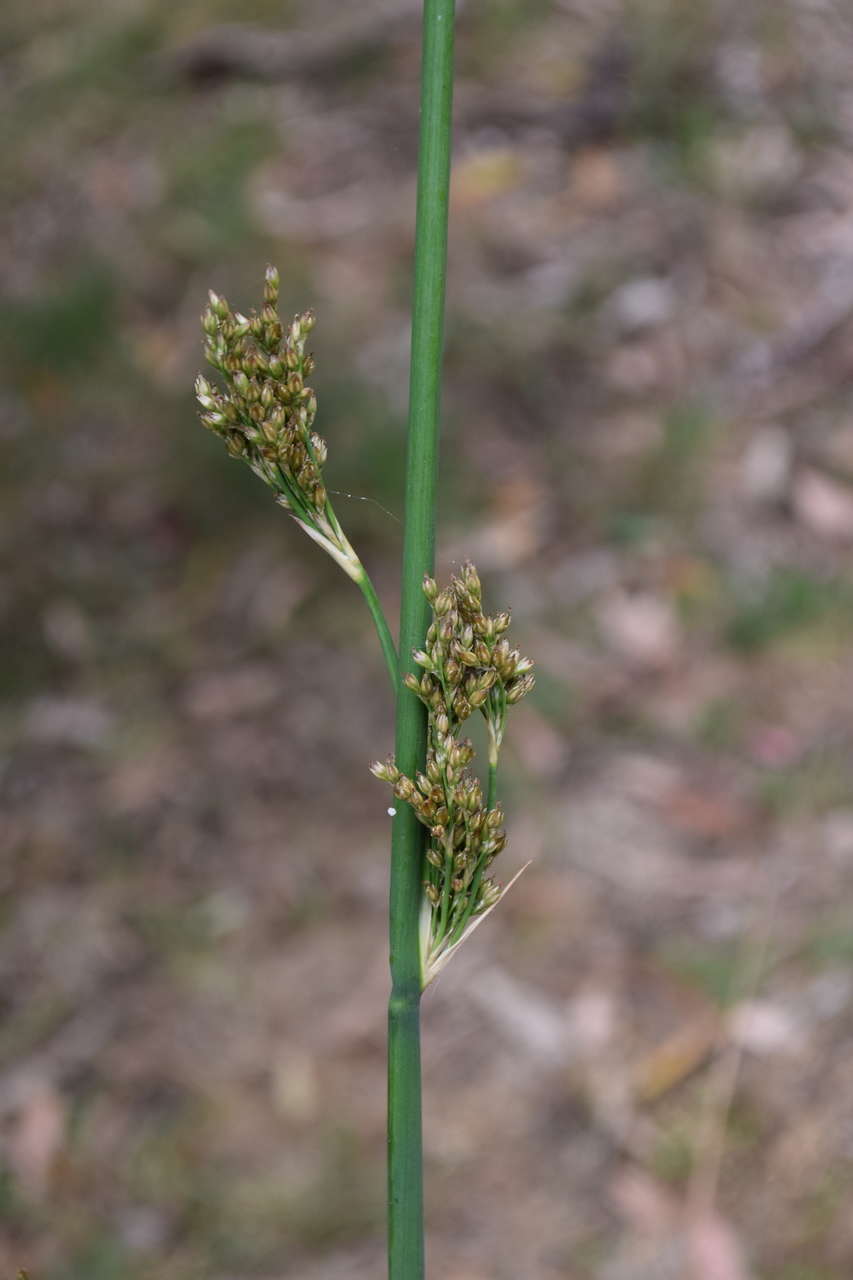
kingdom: Plantae
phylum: Tracheophyta
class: Liliopsida
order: Poales
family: Juncaceae
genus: Juncus
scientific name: Juncus pallidus
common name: Great soft-rush
